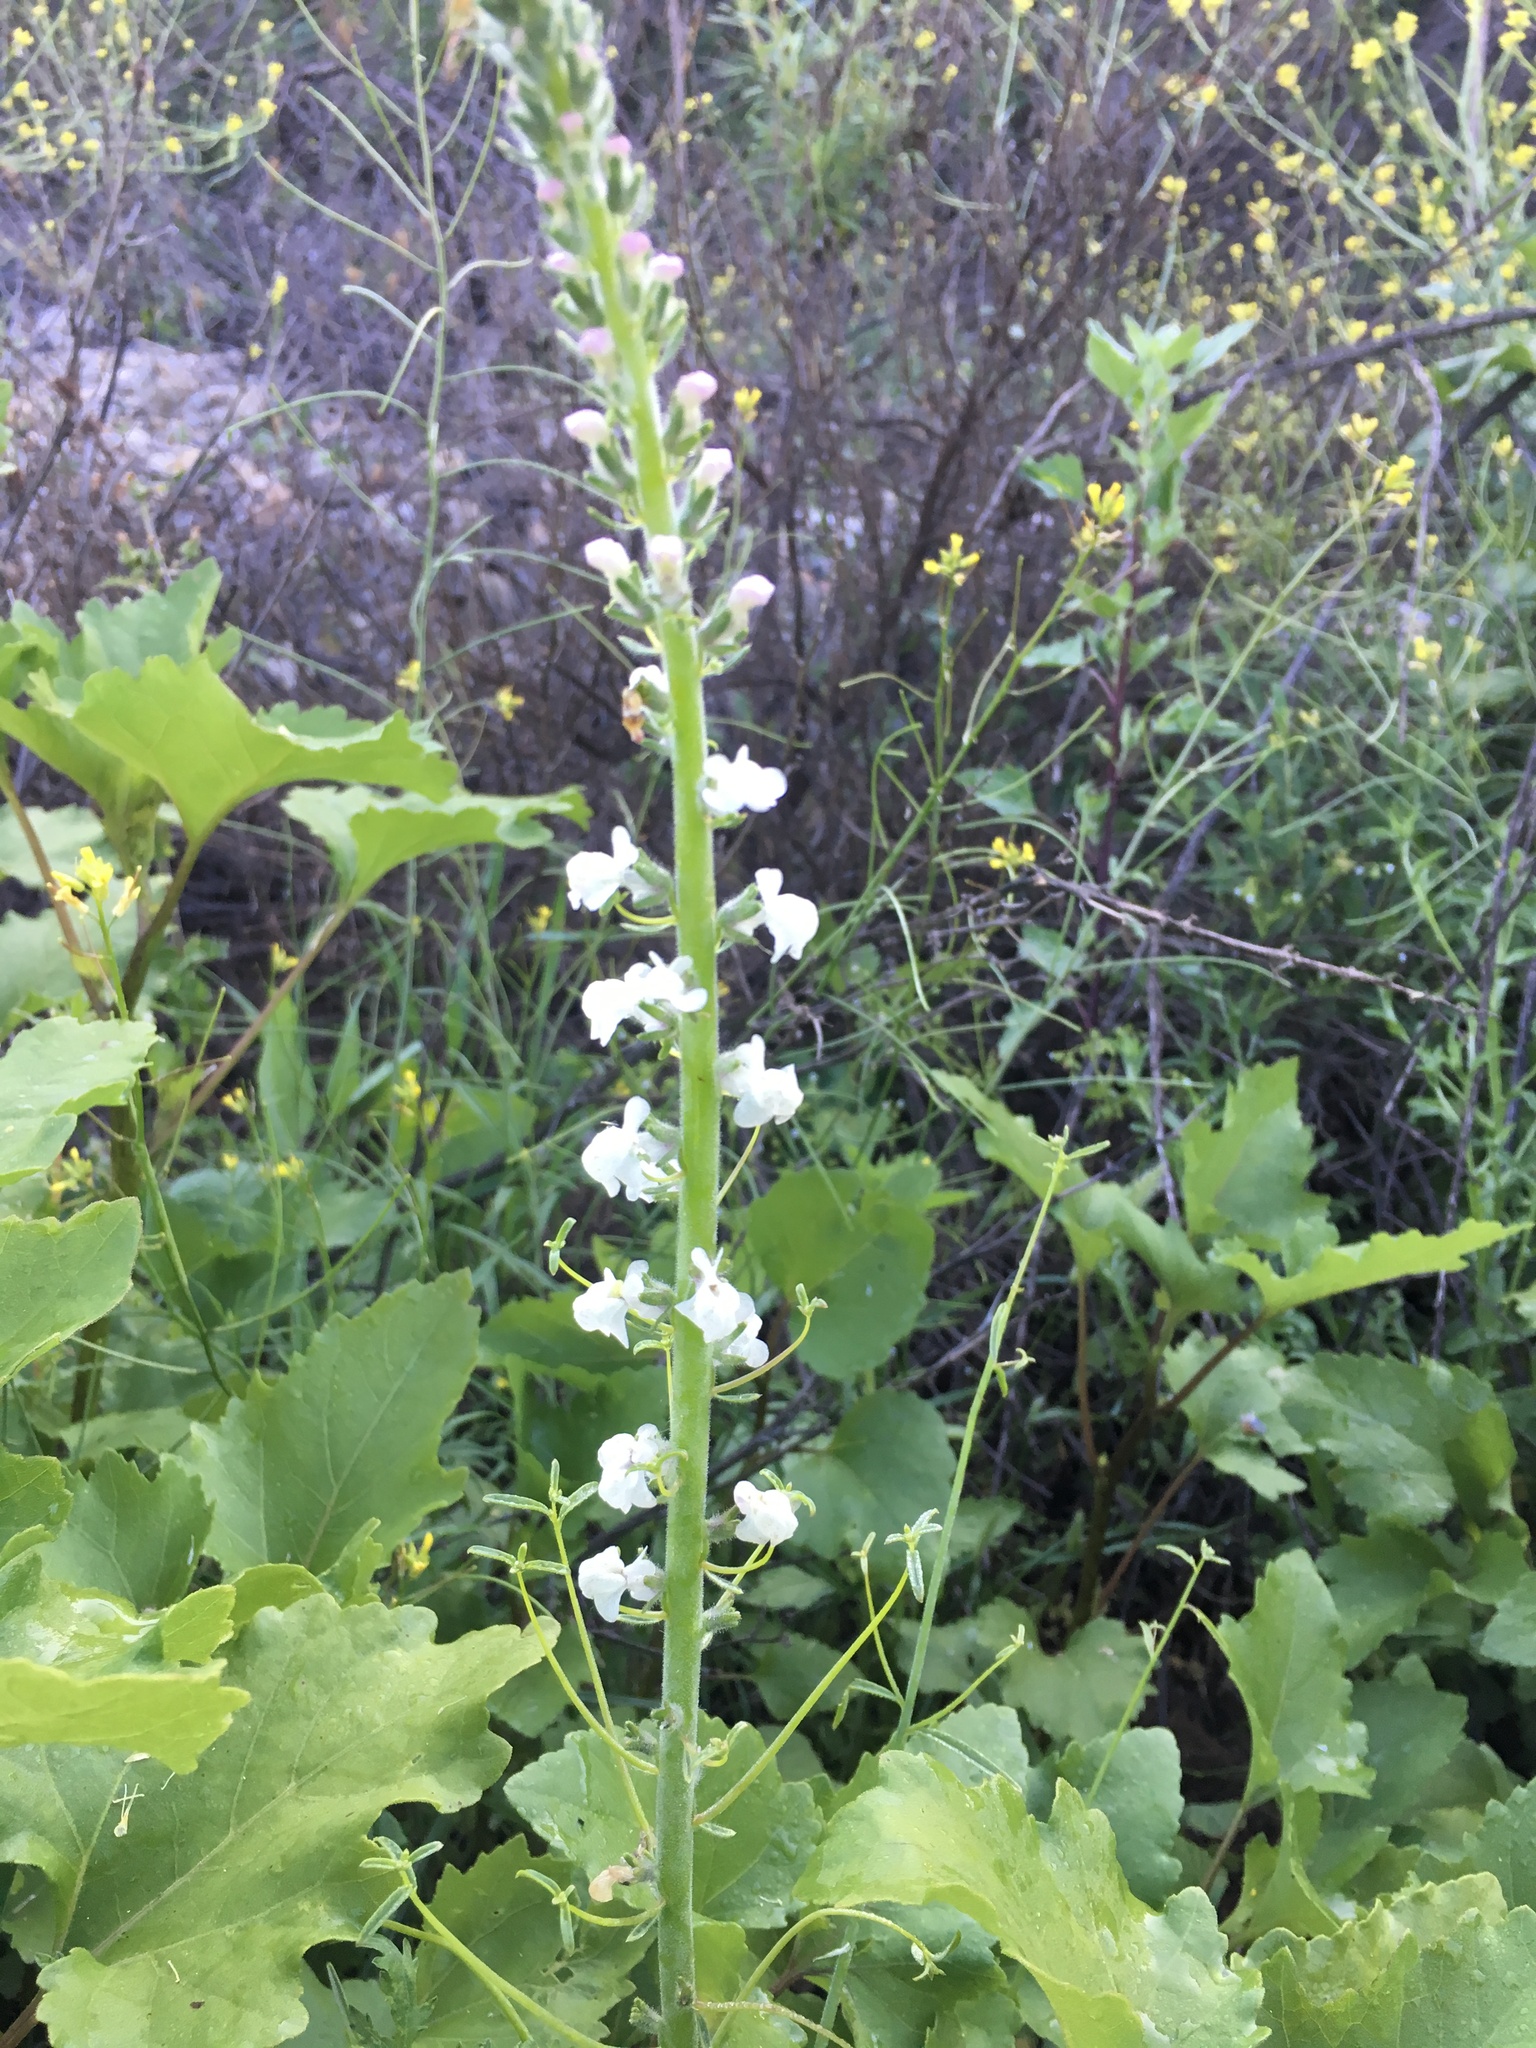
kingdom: Plantae
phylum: Tracheophyta
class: Magnoliopsida
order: Lamiales
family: Plantaginaceae
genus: Sairocarpus
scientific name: Sairocarpus coulterianus
